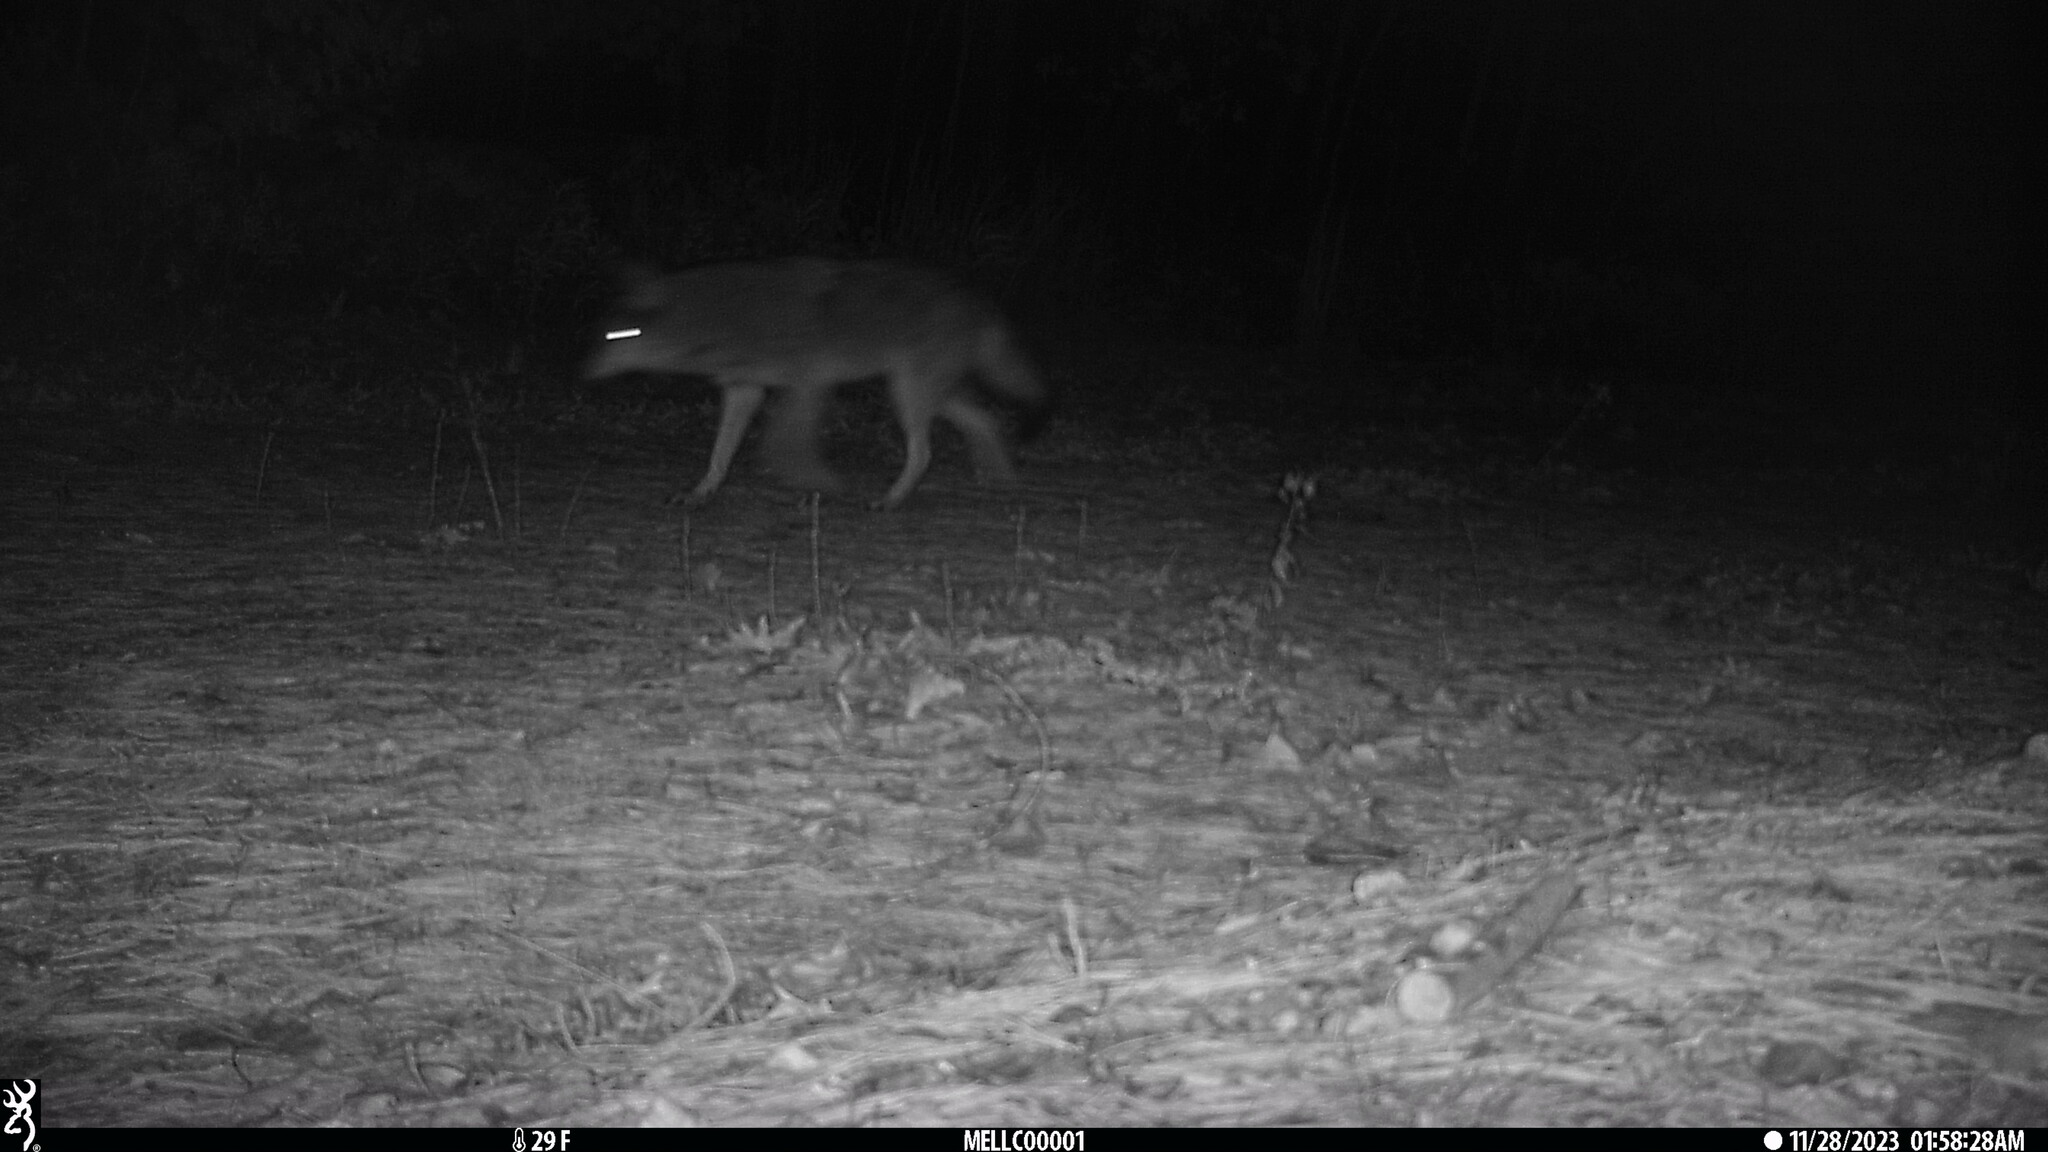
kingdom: Animalia
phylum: Chordata
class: Mammalia
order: Carnivora
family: Canidae
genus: Canis
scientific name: Canis latrans
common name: Coyote
